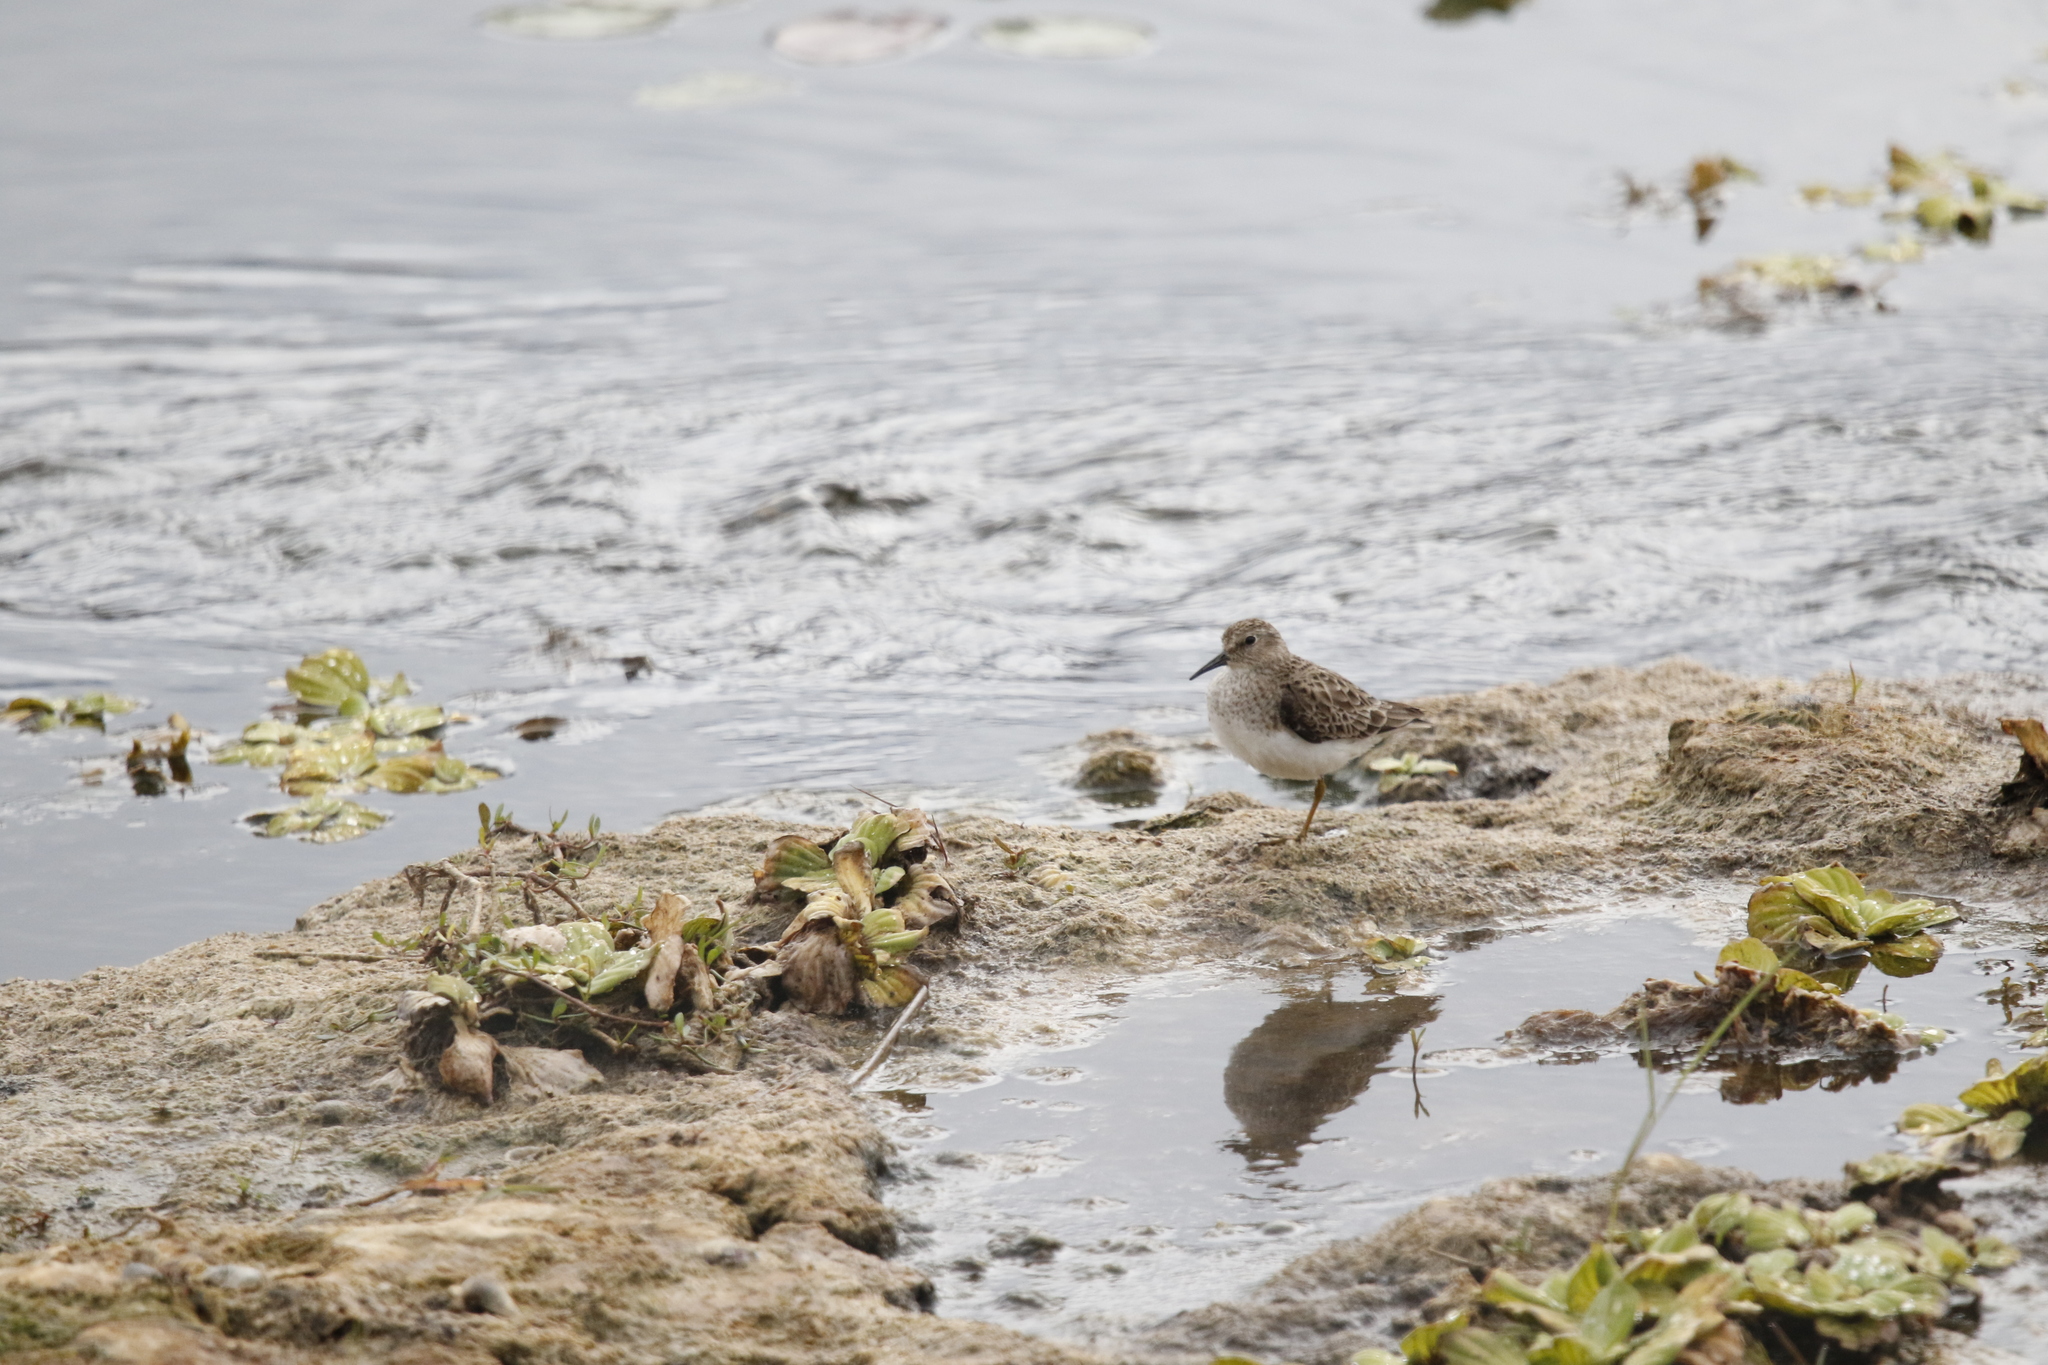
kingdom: Animalia
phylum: Chordata
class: Aves
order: Charadriiformes
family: Scolopacidae
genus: Calidris
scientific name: Calidris minutilla
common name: Least sandpiper
